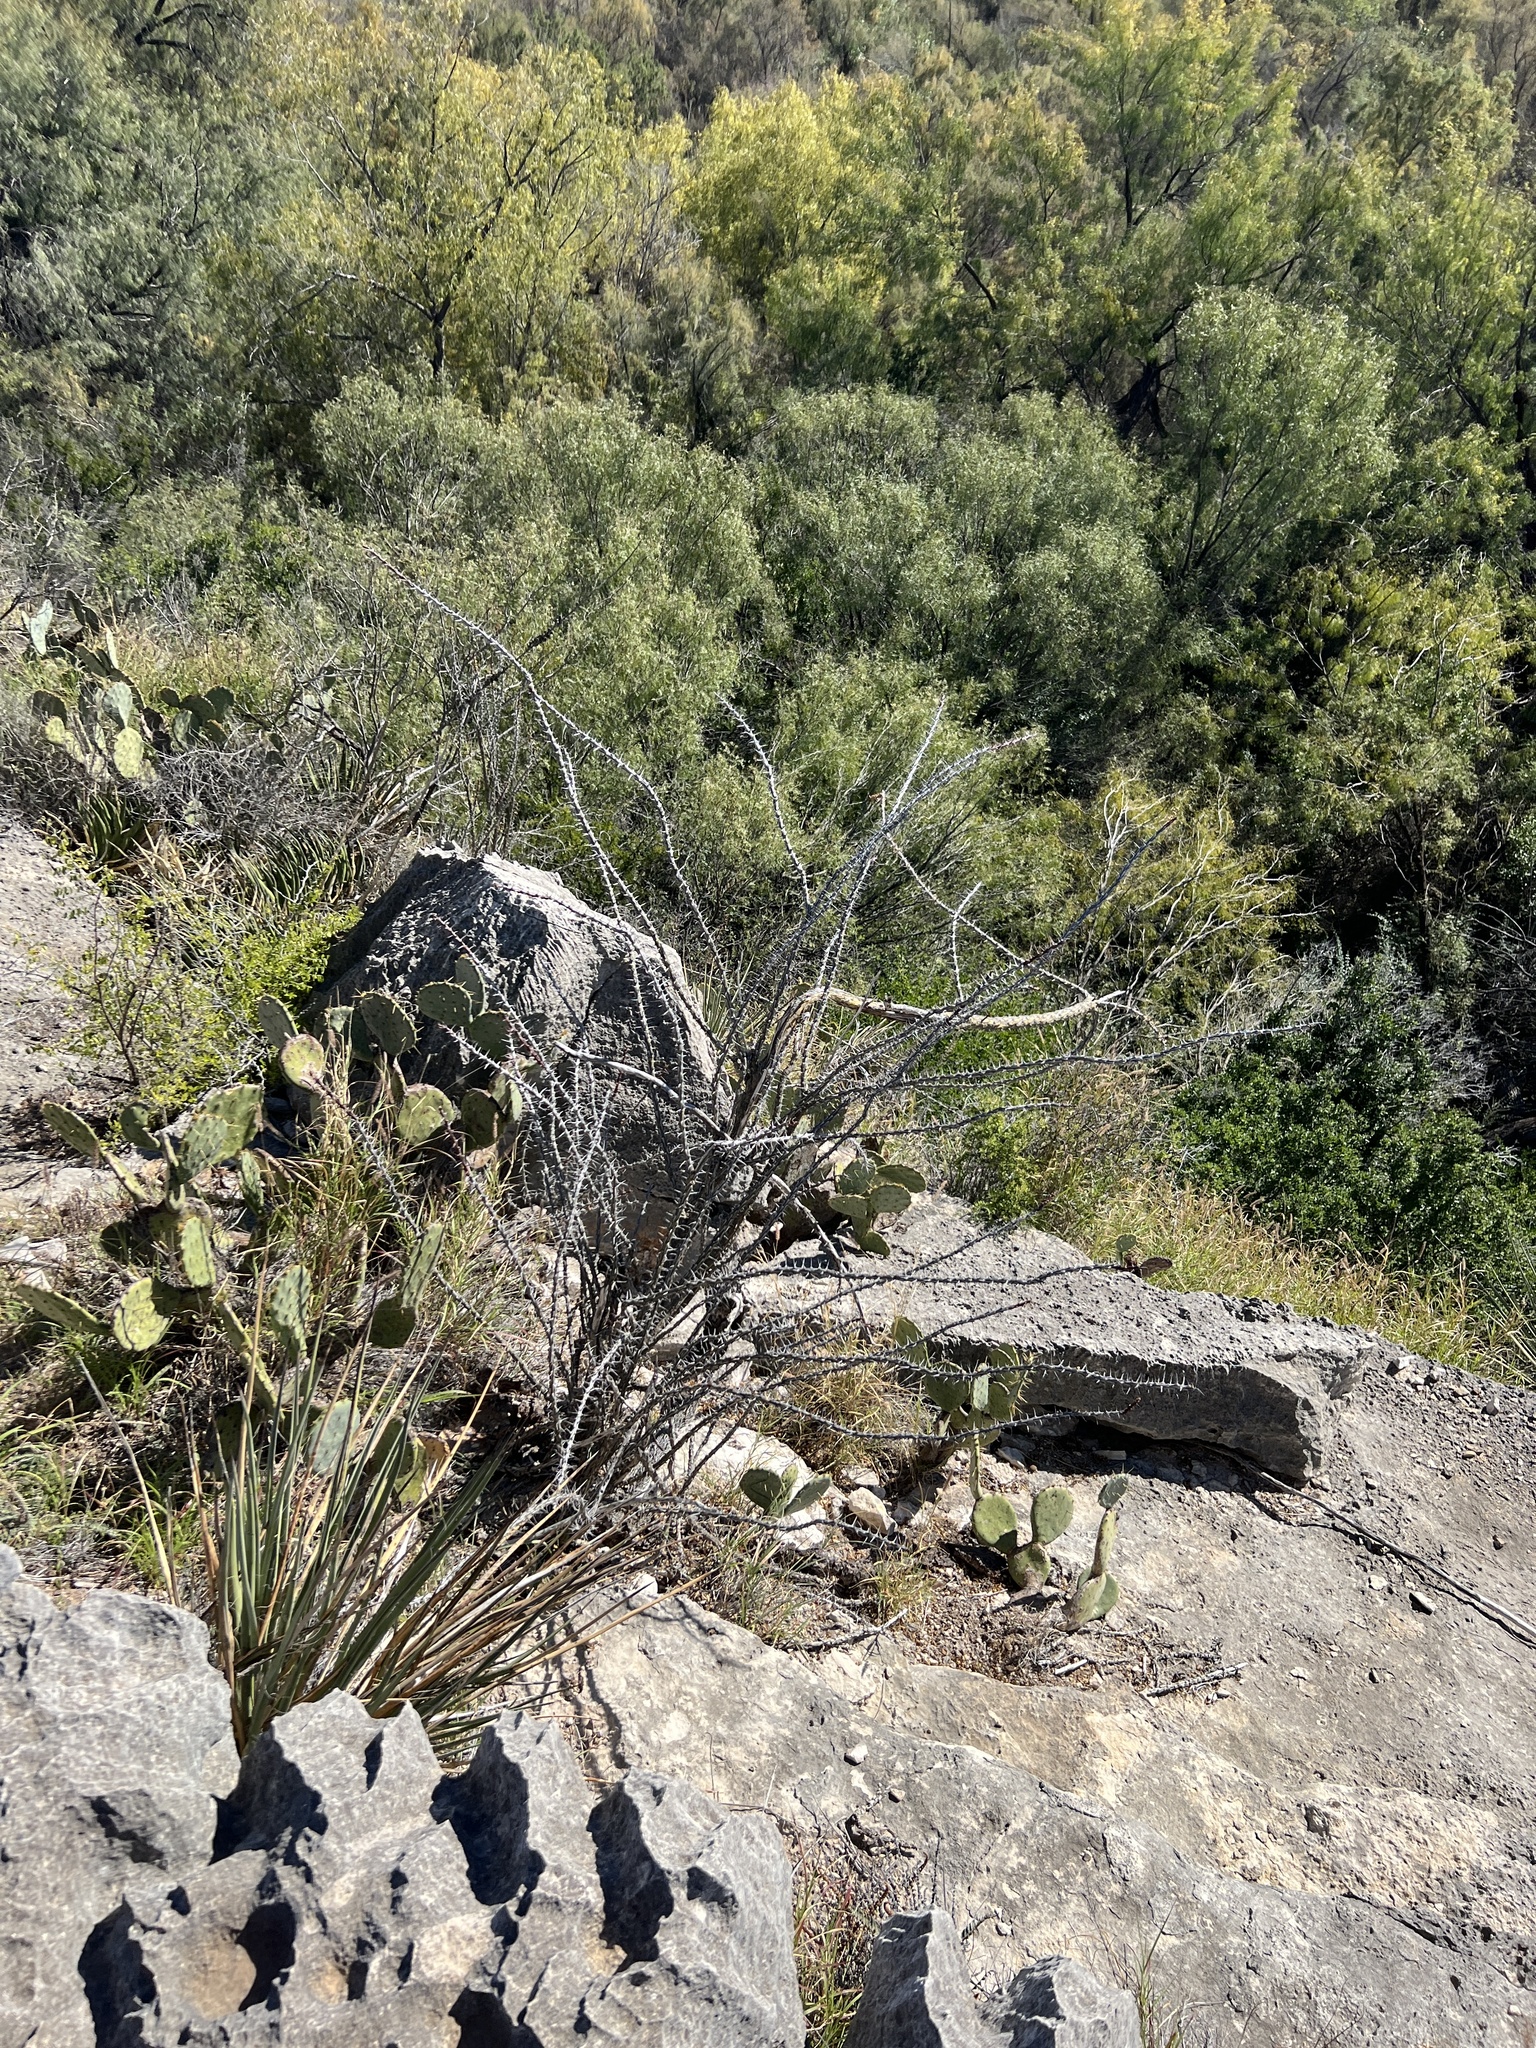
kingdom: Plantae
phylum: Tracheophyta
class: Magnoliopsida
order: Ericales
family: Fouquieriaceae
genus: Fouquieria
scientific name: Fouquieria splendens
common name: Vine-cactus
